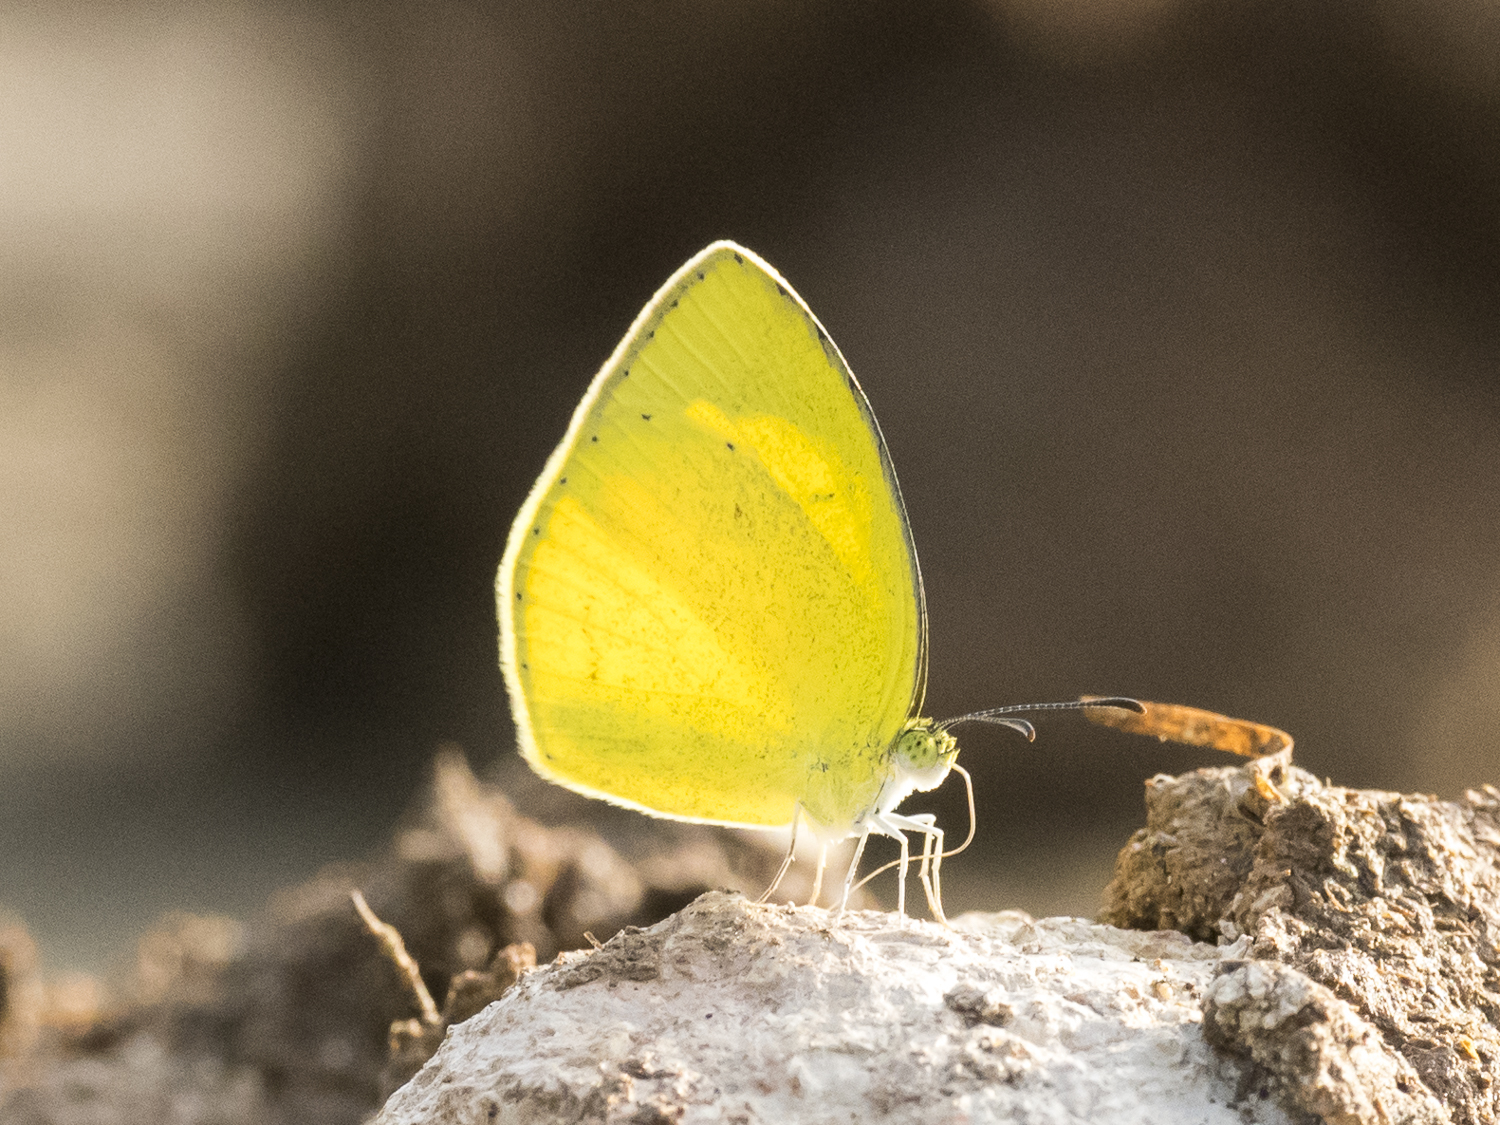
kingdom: Animalia
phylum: Arthropoda
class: Insecta
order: Lepidoptera
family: Pieridae
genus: Eurema
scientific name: Eurema brigitta
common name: Small grass yellow
